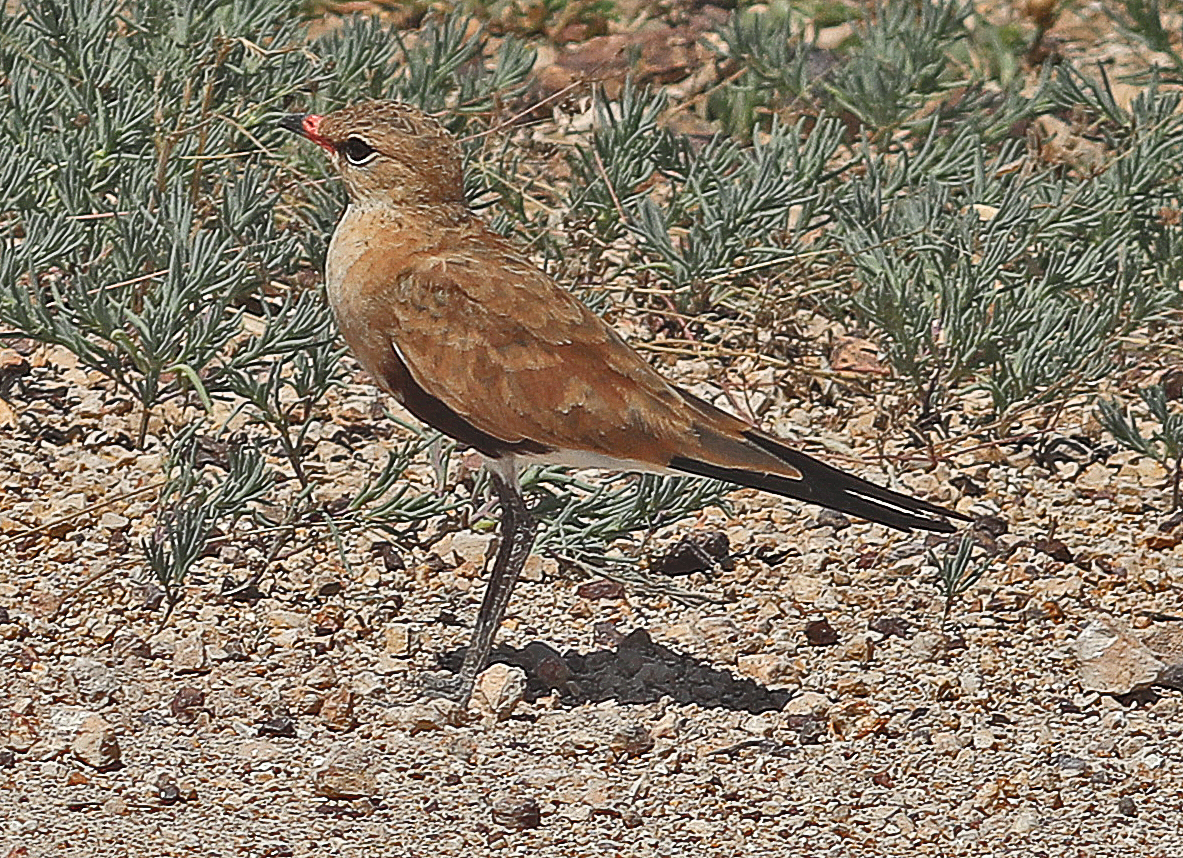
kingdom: Animalia
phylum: Chordata
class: Aves
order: Charadriiformes
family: Glareolidae
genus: Stiltia
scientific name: Stiltia isabella
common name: Australian pratincole
